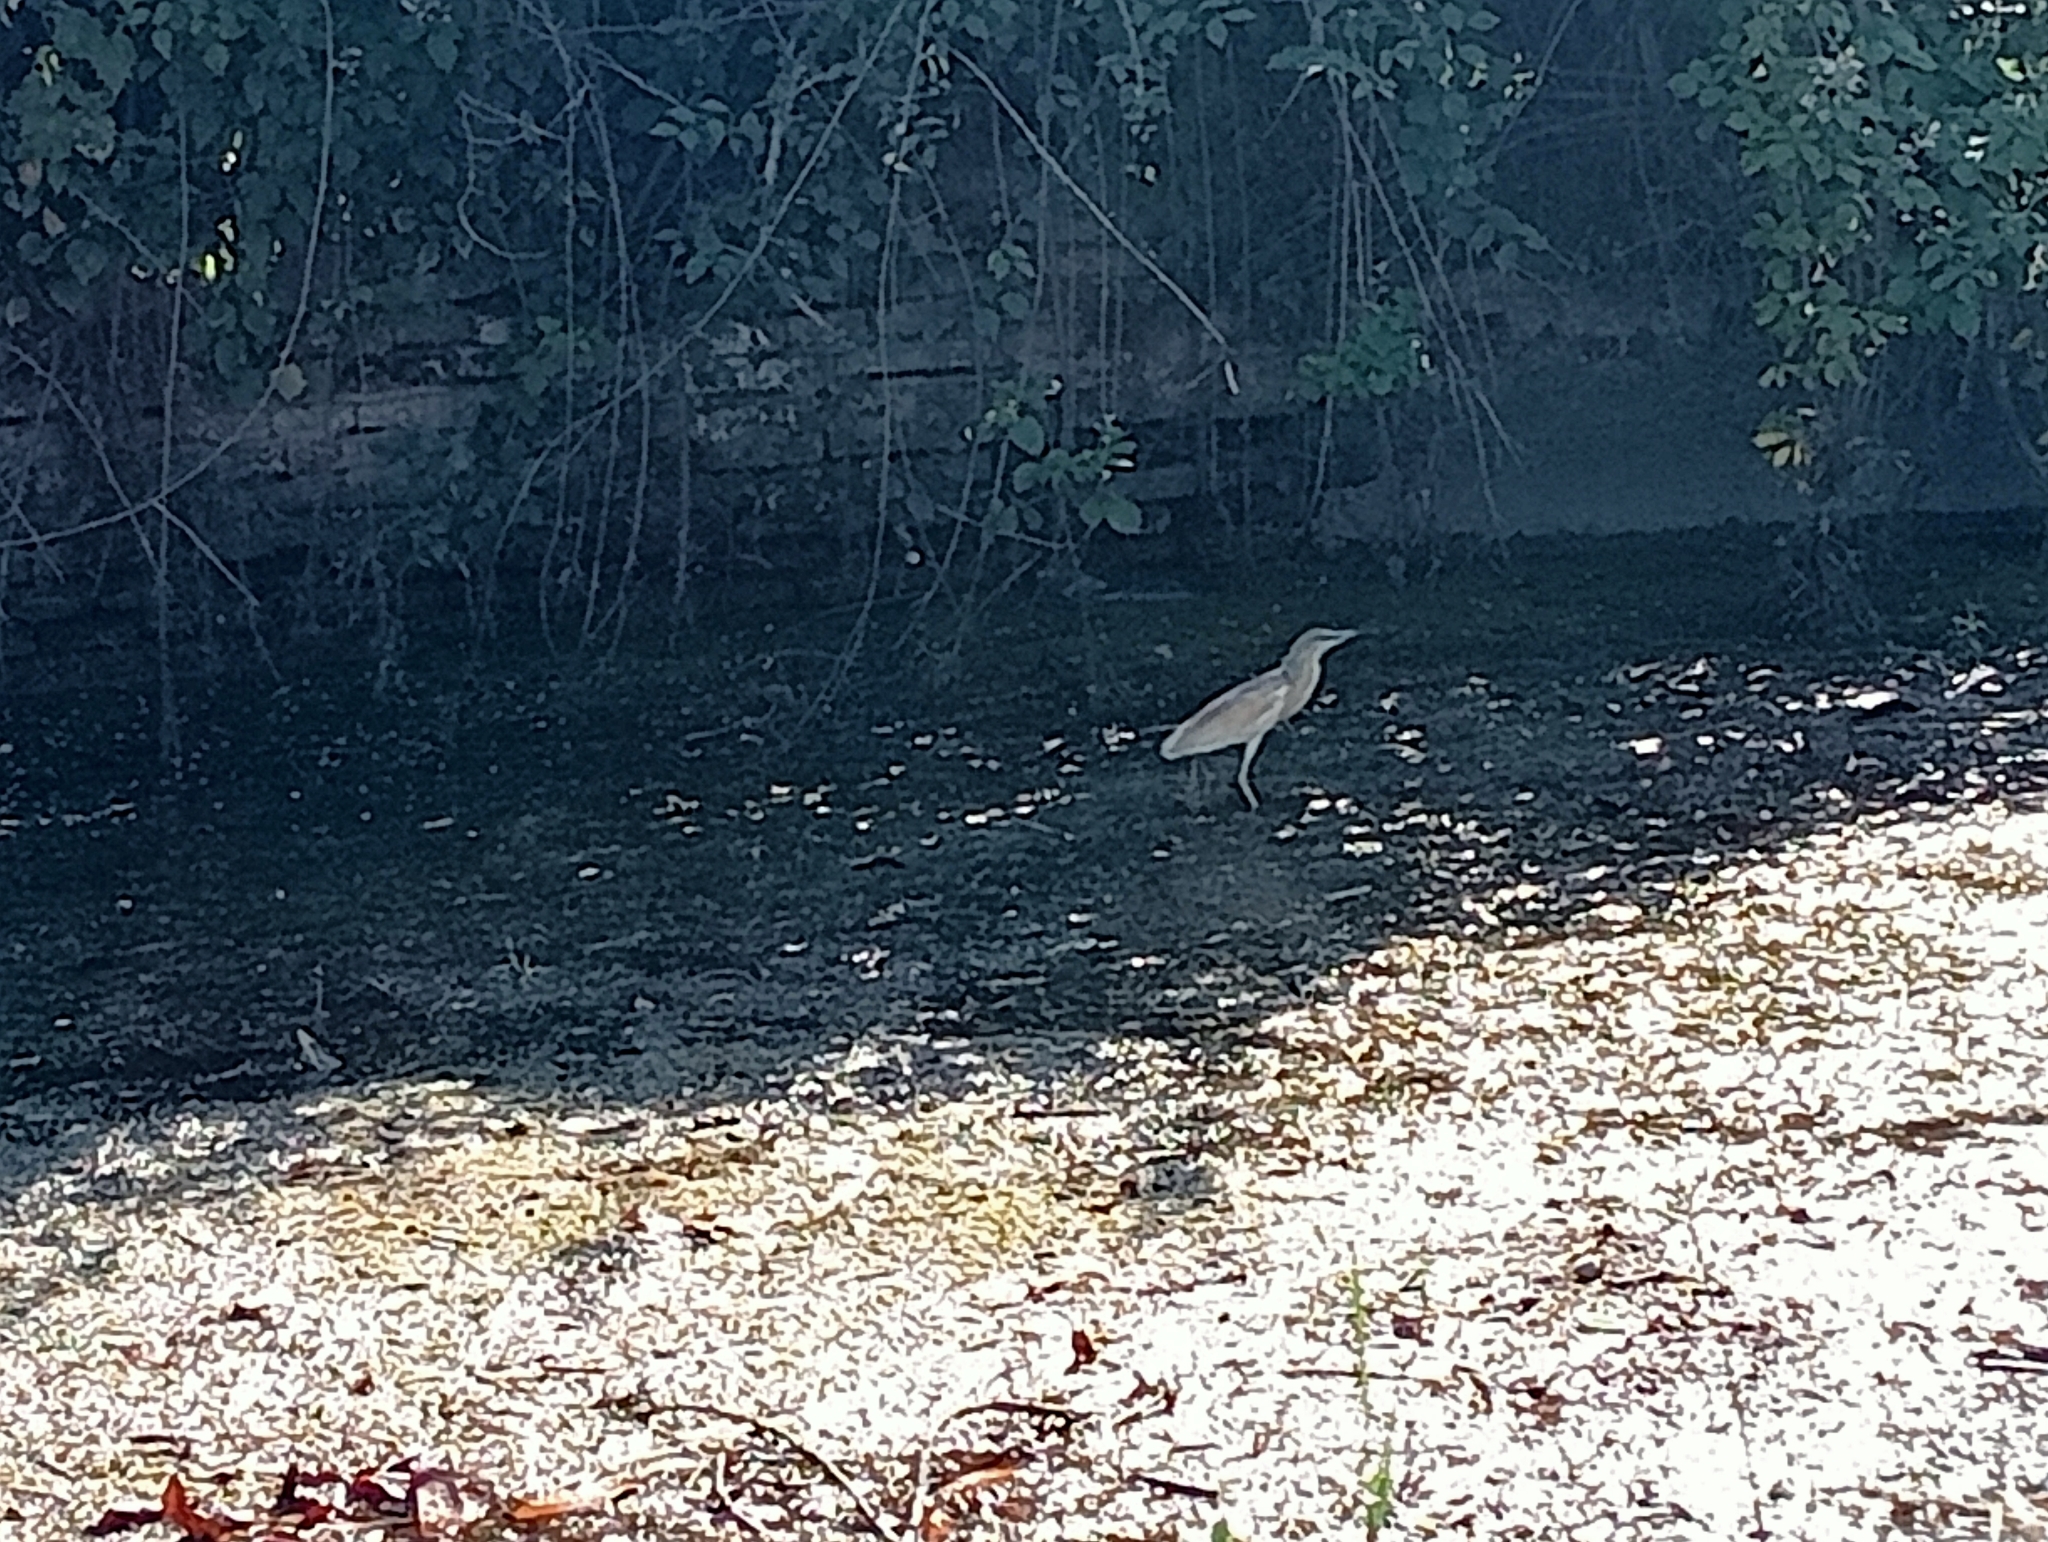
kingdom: Animalia
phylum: Chordata
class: Aves
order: Pelecaniformes
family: Ardeidae
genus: Ardeola
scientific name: Ardeola ralloides
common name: Squacco heron
